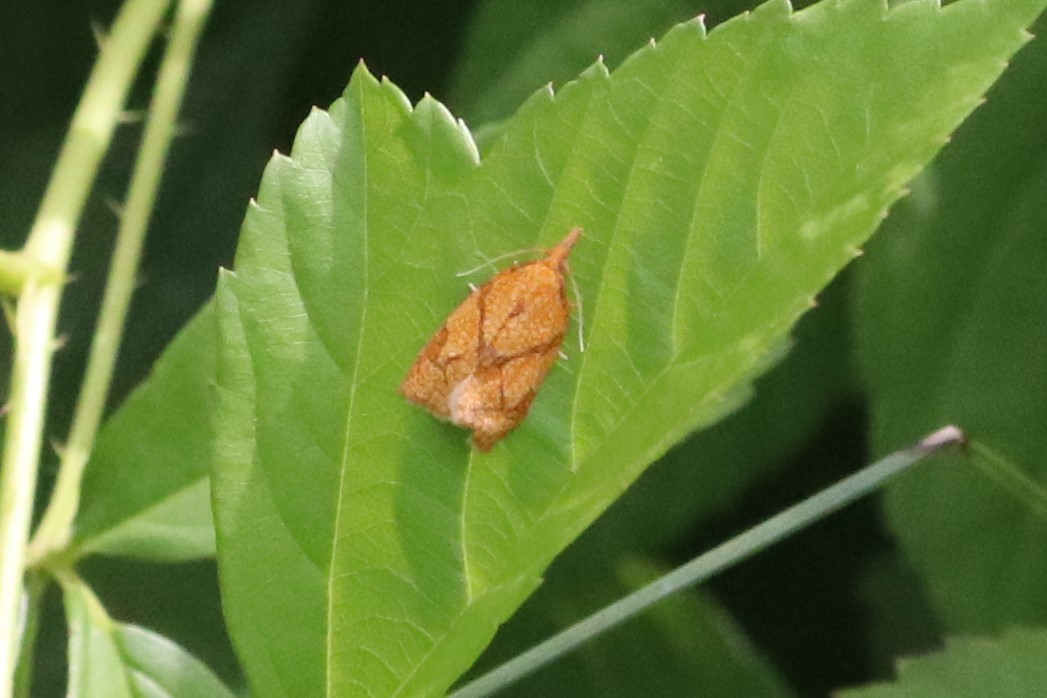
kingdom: Animalia
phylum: Arthropoda
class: Insecta
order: Lepidoptera
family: Tortricidae
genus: Cenopis
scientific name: Cenopis reticulatana
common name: Reticulated fruitworm moth
